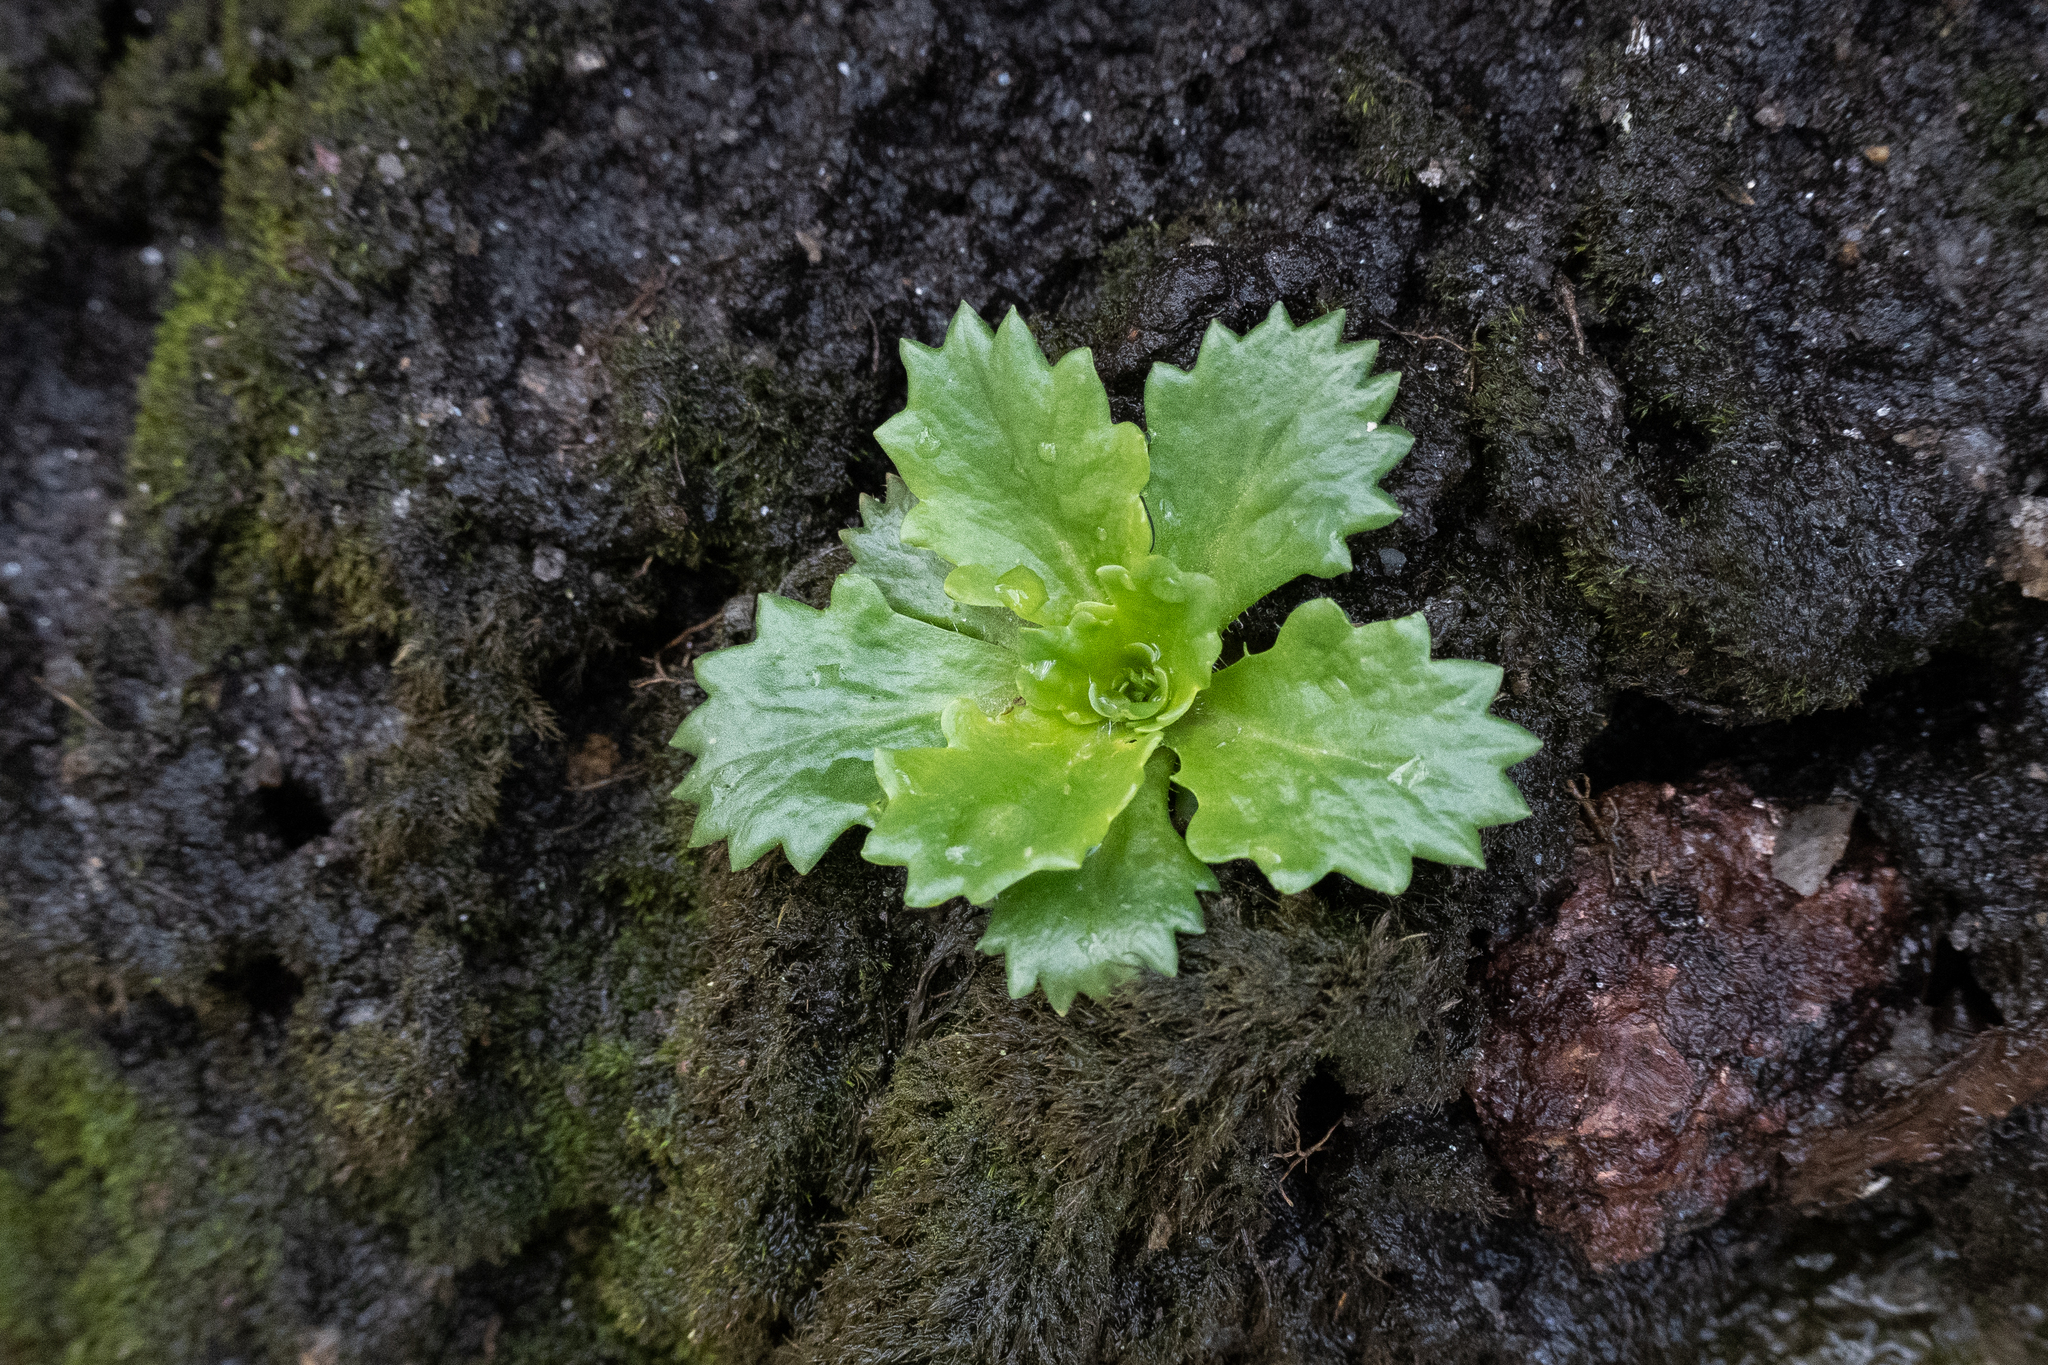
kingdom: Plantae
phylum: Tracheophyta
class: Magnoliopsida
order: Saxifragales
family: Saxifragaceae
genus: Micranthes
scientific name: Micranthes petiolaris
